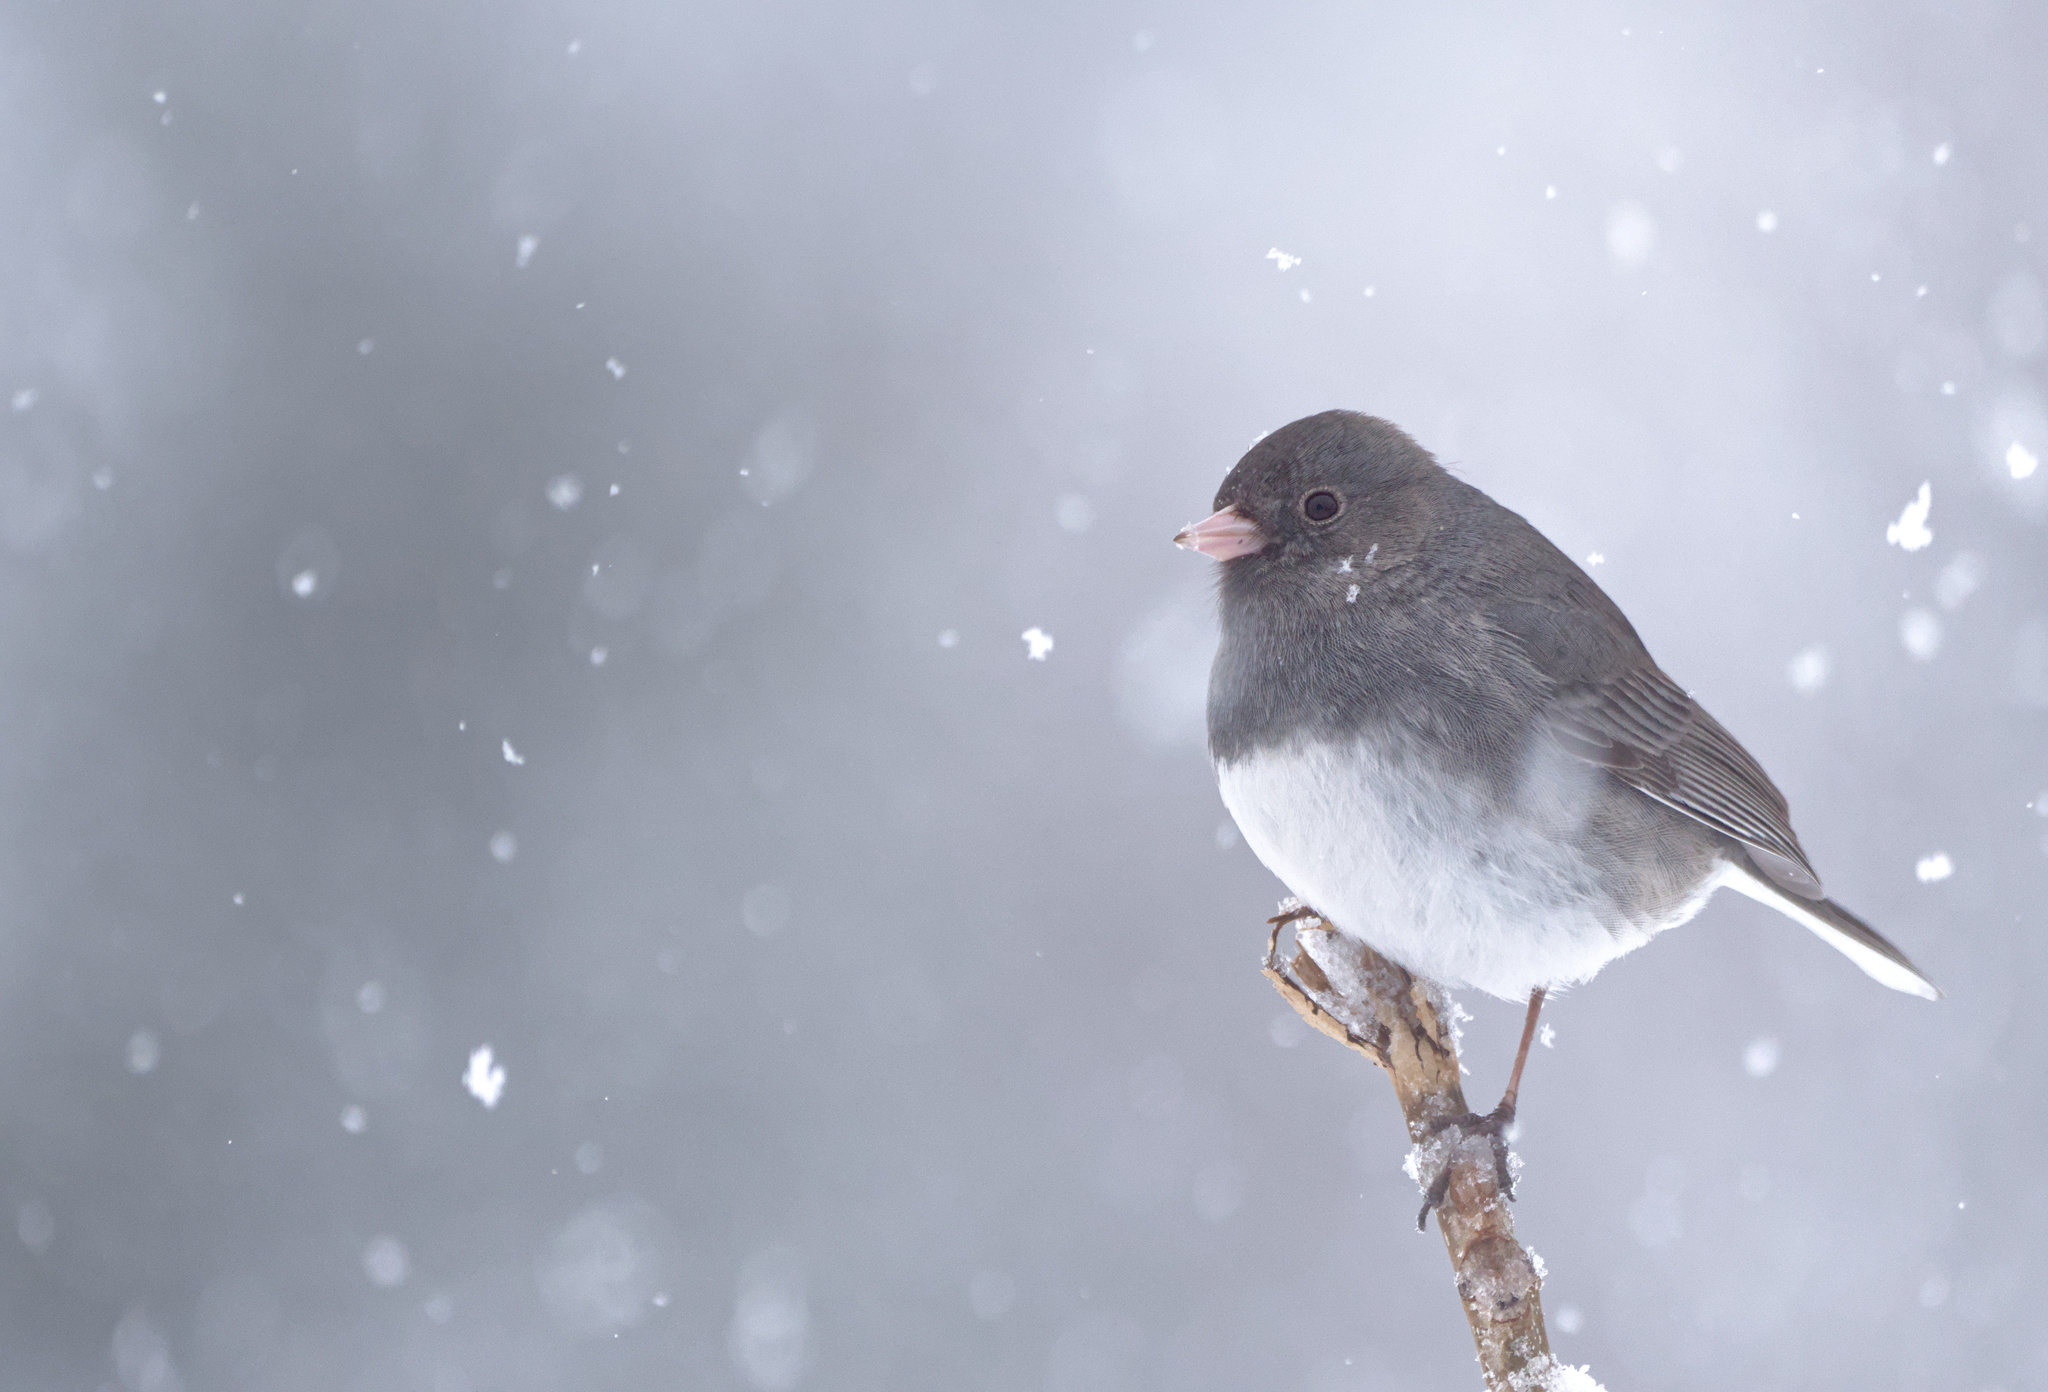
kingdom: Animalia
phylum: Chordata
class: Aves
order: Passeriformes
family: Passerellidae
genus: Junco
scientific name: Junco hyemalis
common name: Dark-eyed junco
